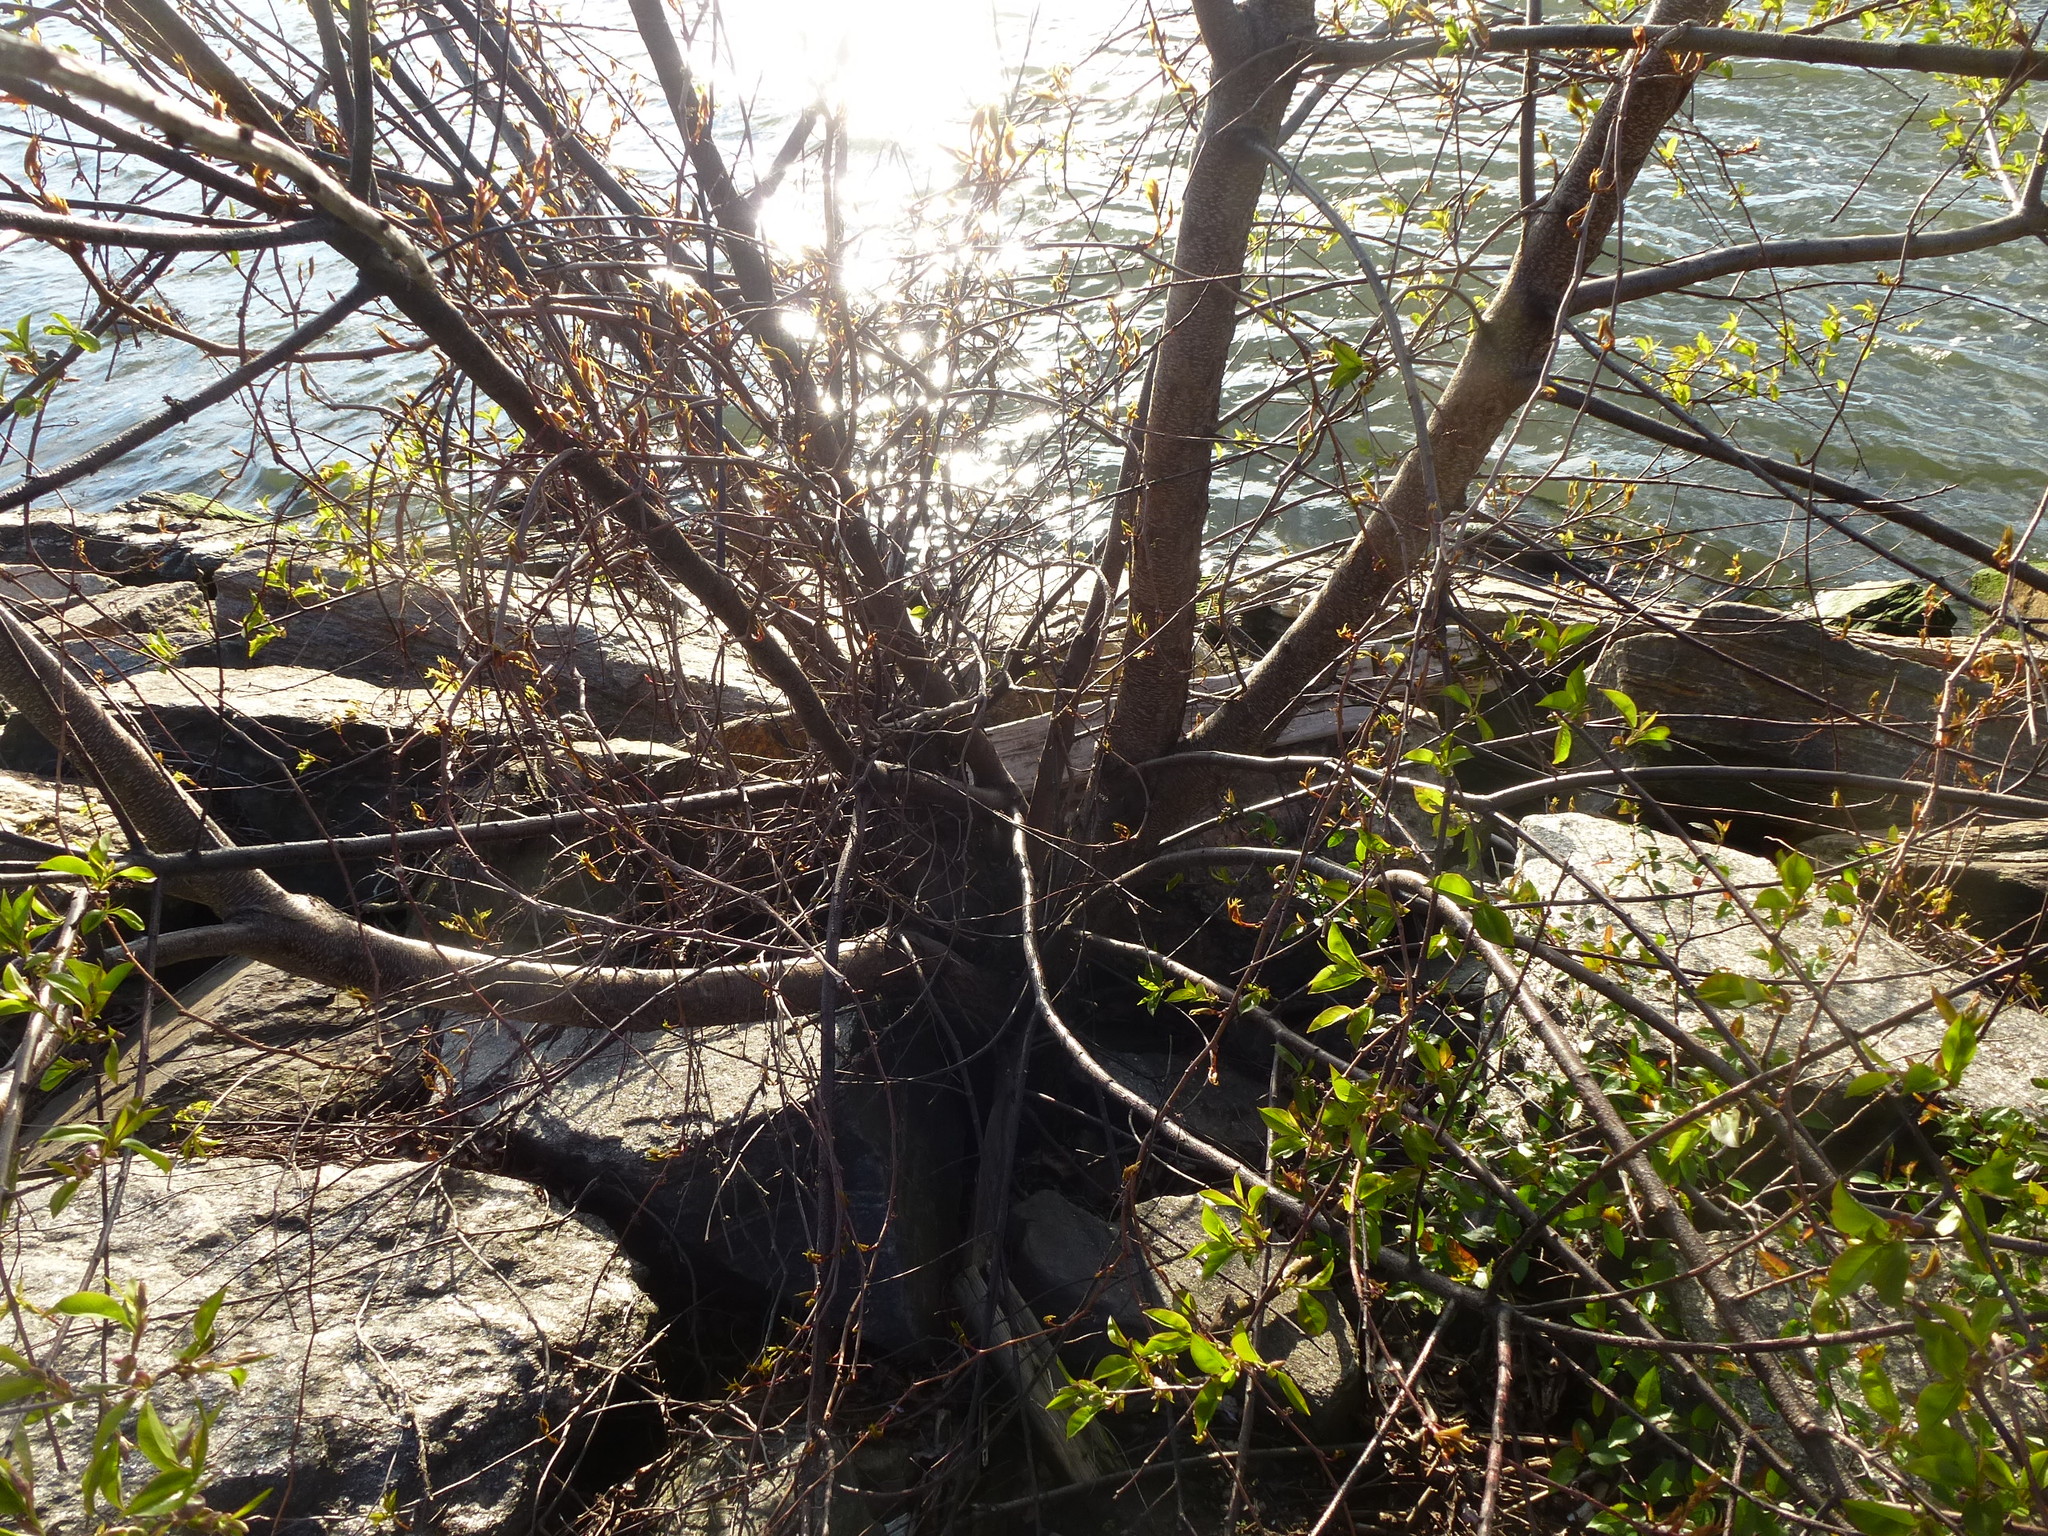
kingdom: Plantae
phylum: Tracheophyta
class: Magnoliopsida
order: Rosales
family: Rosaceae
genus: Prunus
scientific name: Prunus serotina
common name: Black cherry
